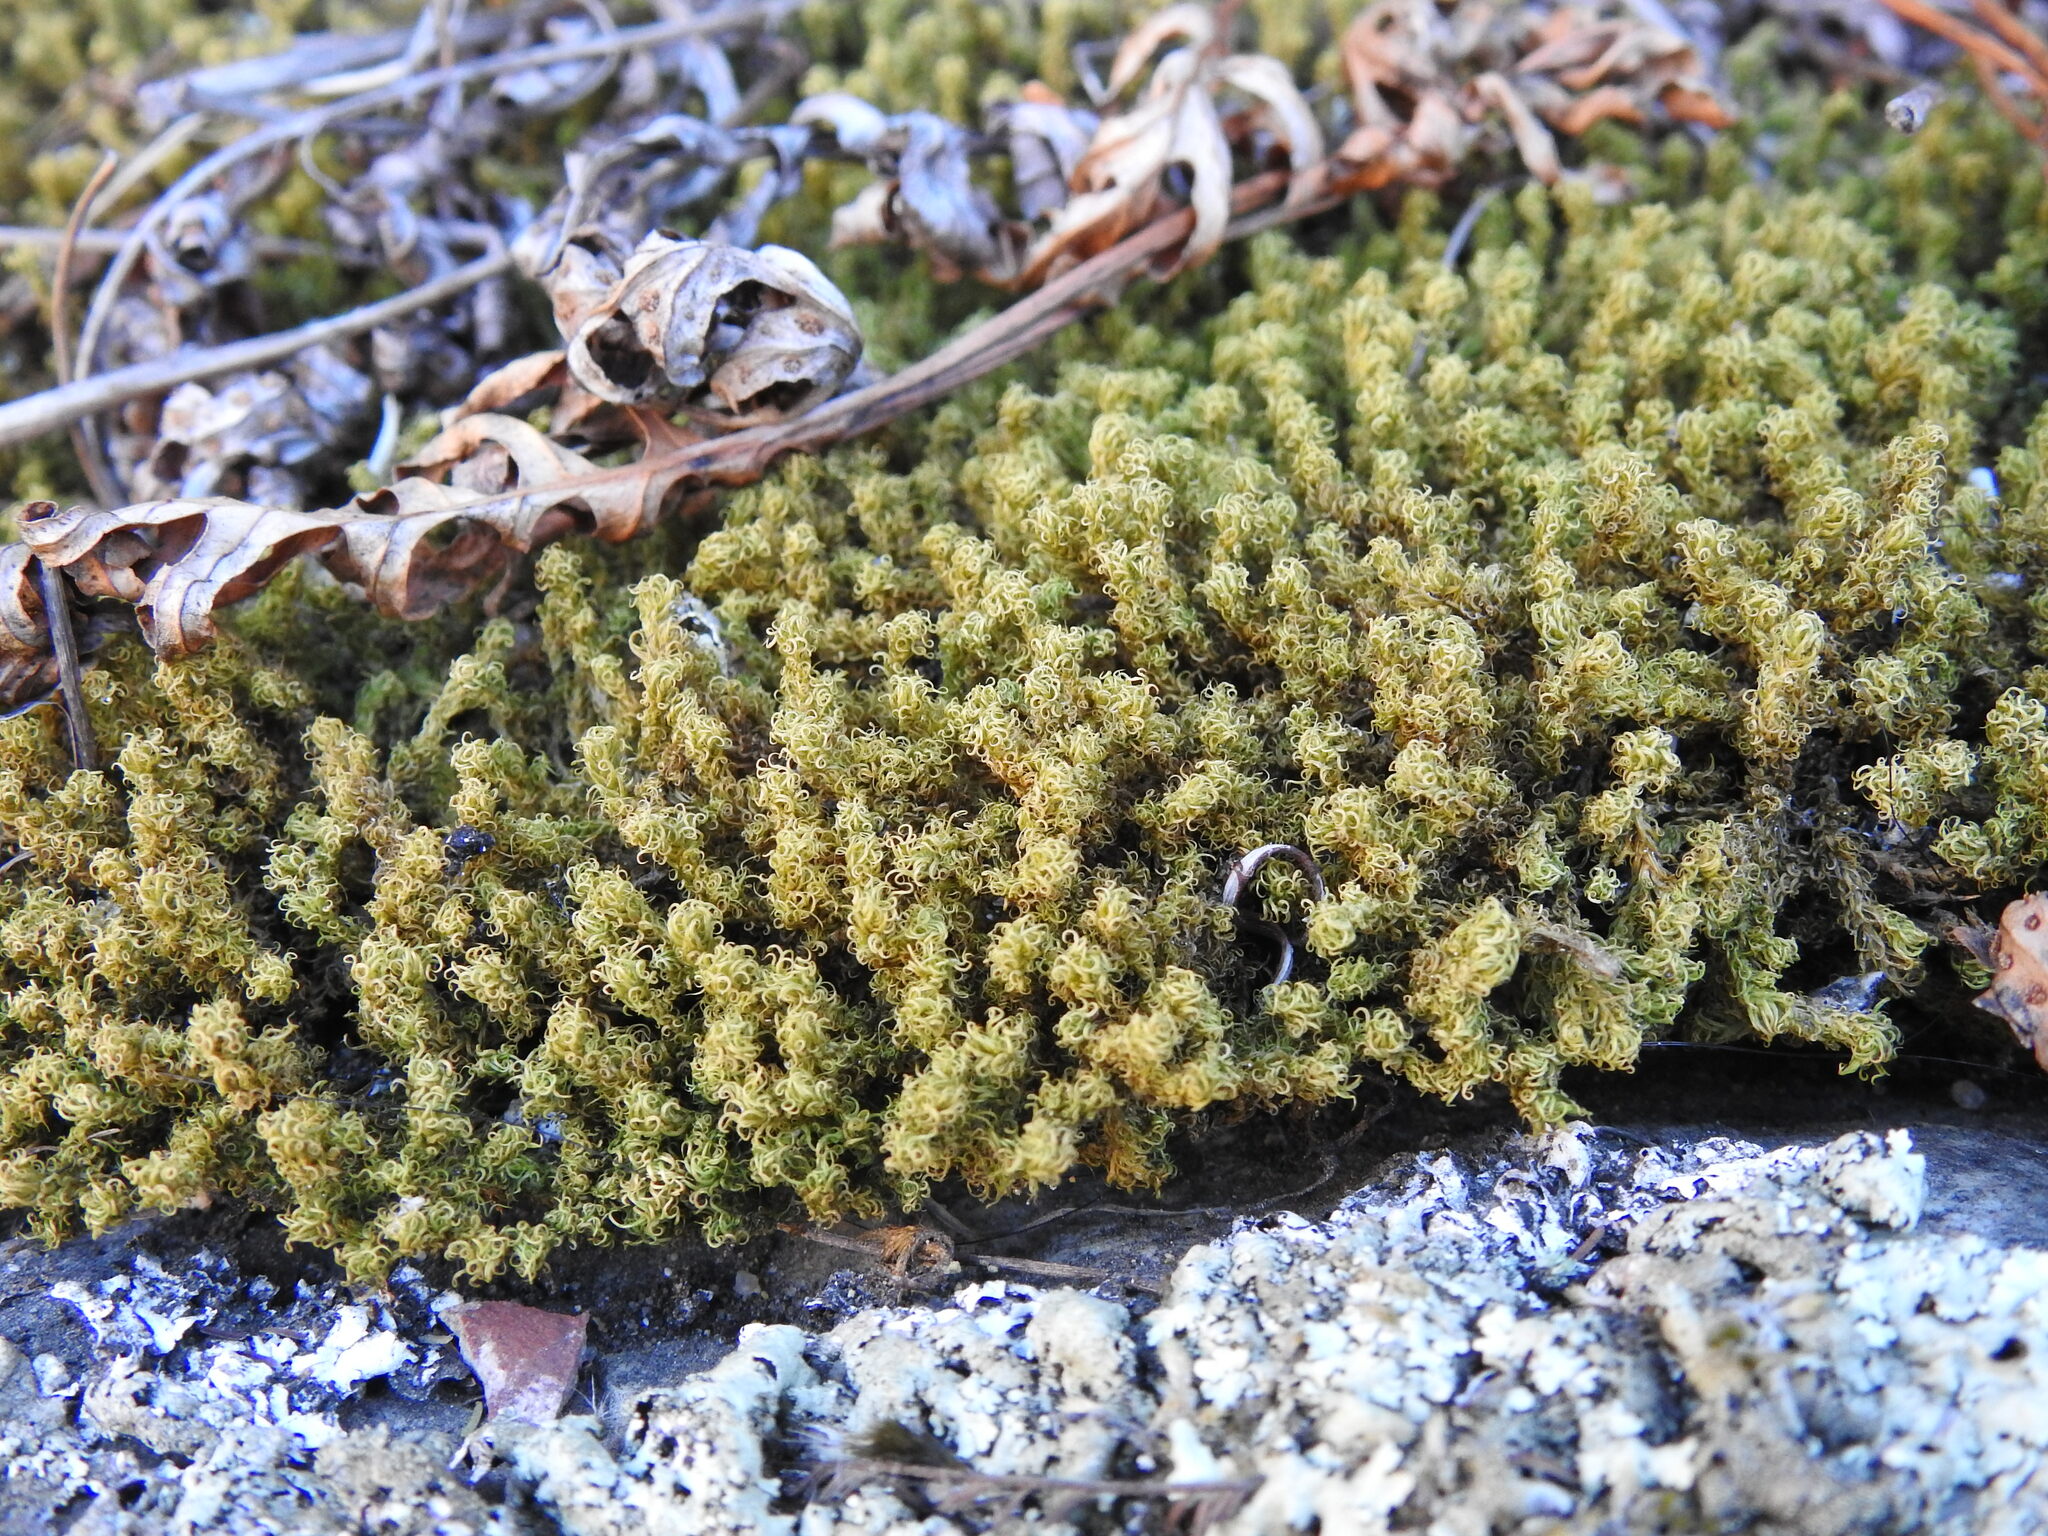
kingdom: Plantae
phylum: Bryophyta
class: Bryopsida
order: Pottiales
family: Pottiaceae
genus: Pleurochaete
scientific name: Pleurochaete squarrosa
